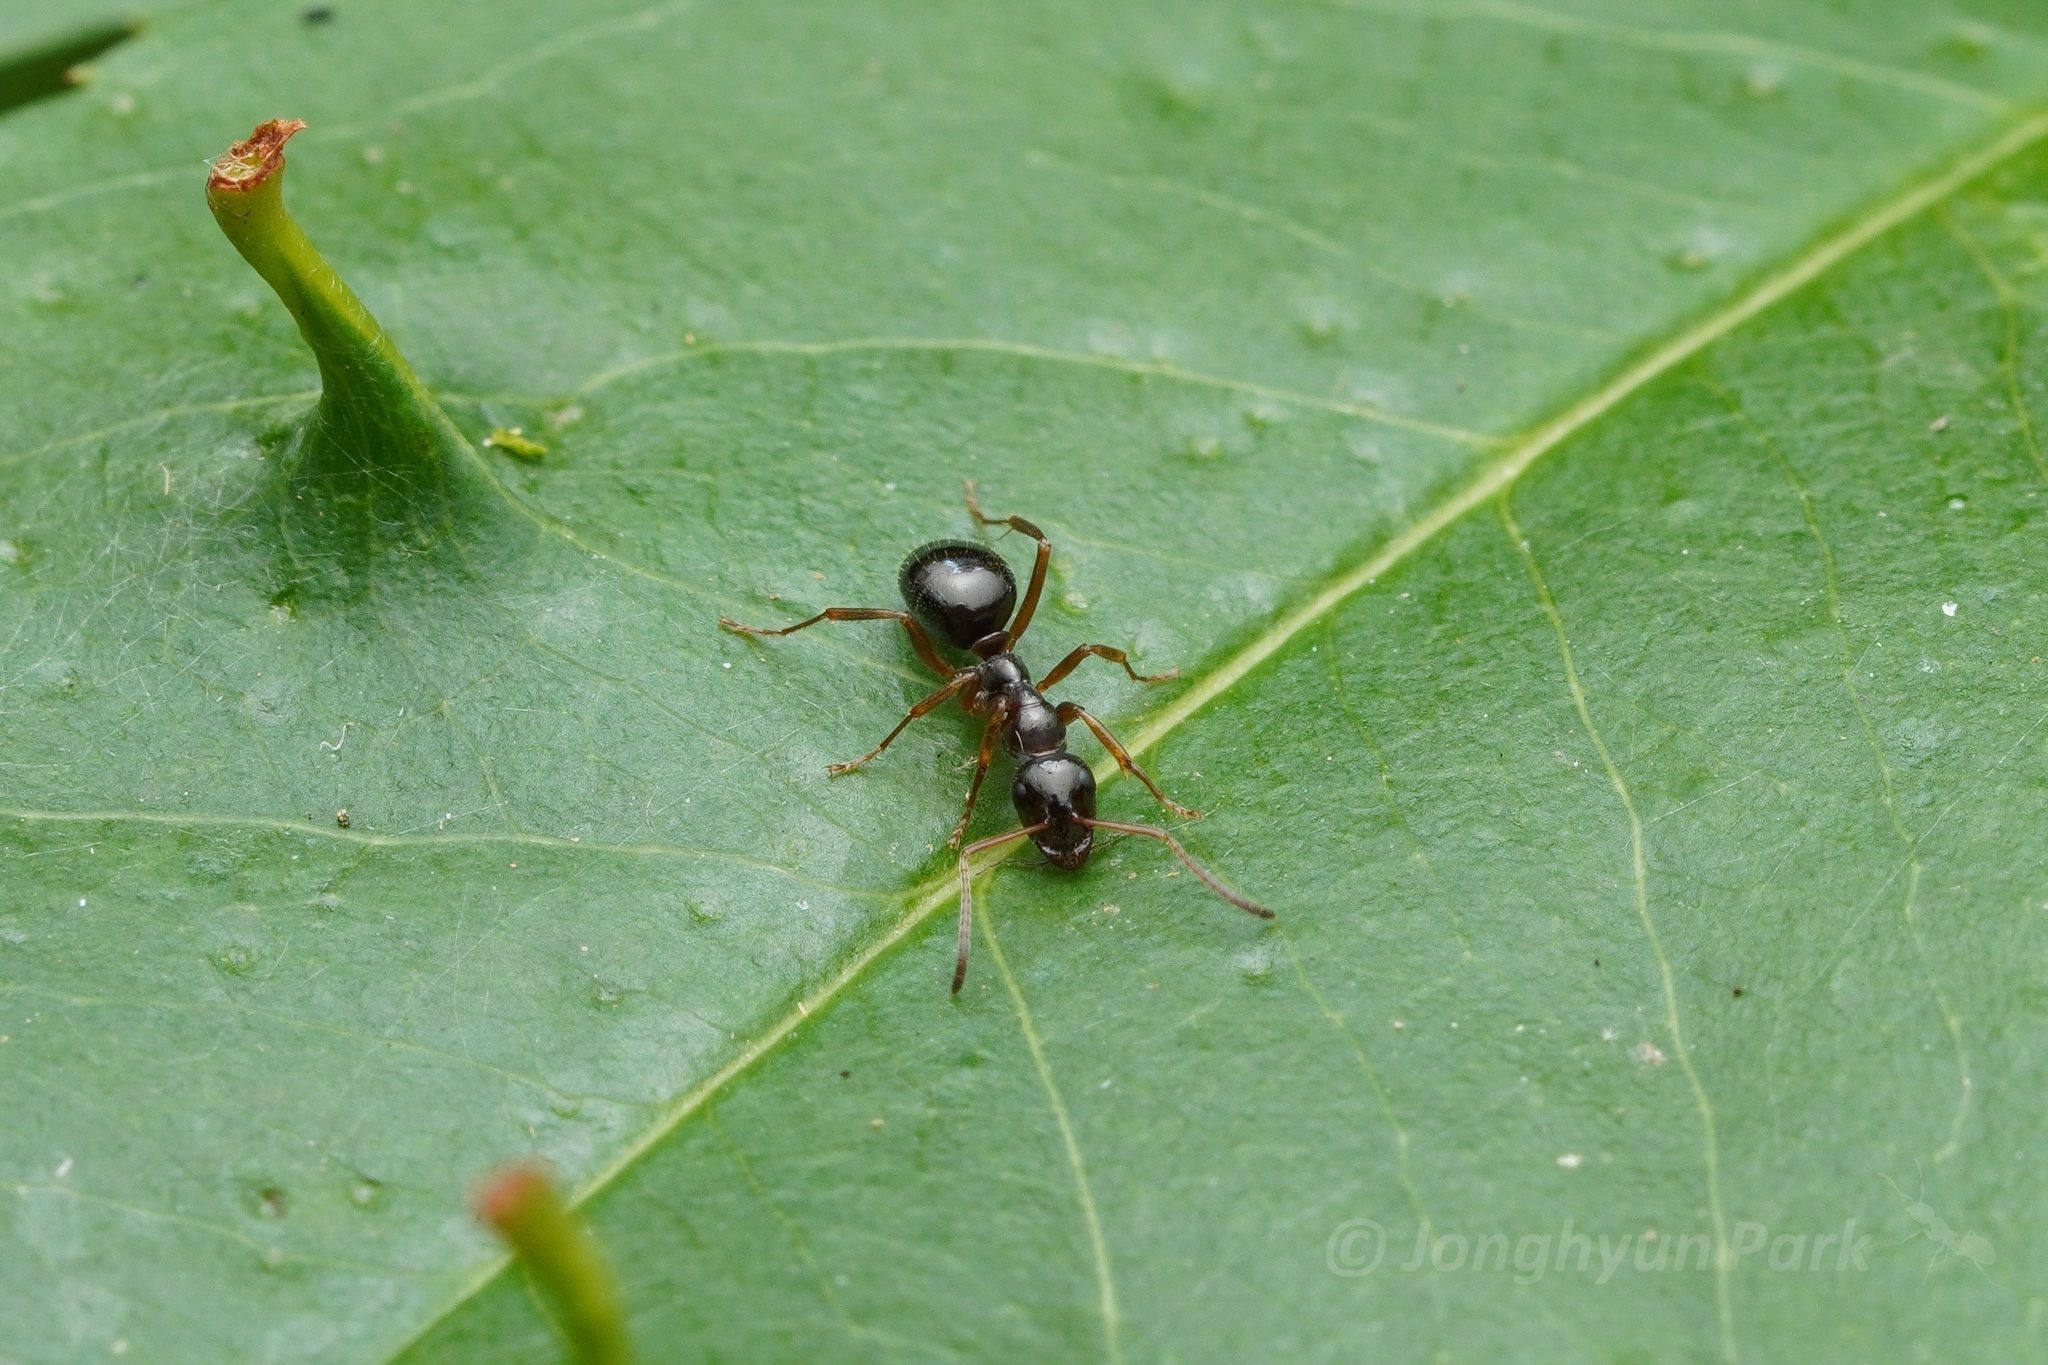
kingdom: Animalia
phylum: Arthropoda
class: Insecta
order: Hymenoptera
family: Formicidae
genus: Formica
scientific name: Formica neogagates
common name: New world black ant
